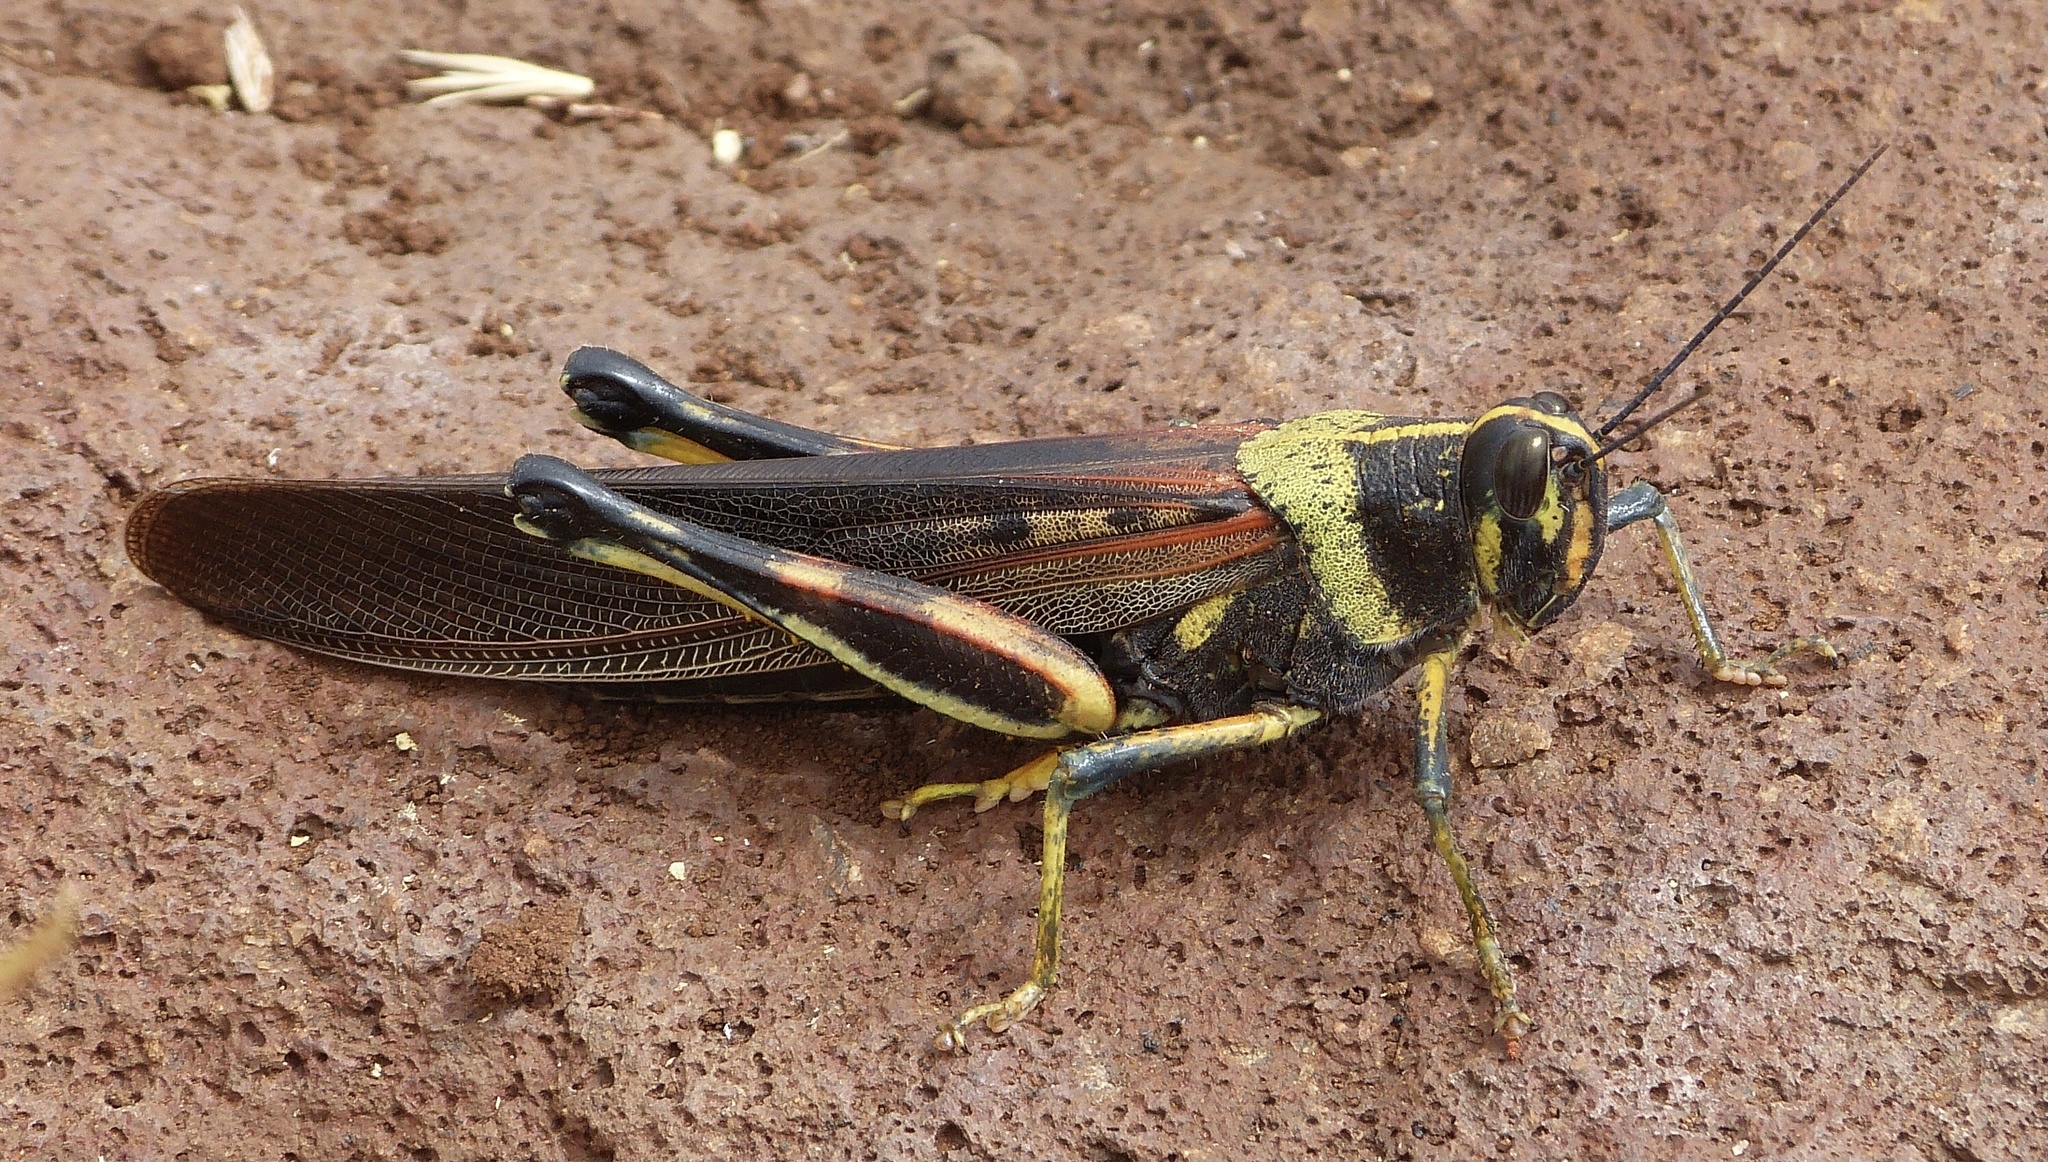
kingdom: Animalia
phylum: Arthropoda
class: Insecta
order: Orthoptera
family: Acrididae
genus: Schistocerca
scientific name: Schistocerca melanocera
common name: Large painted locust
